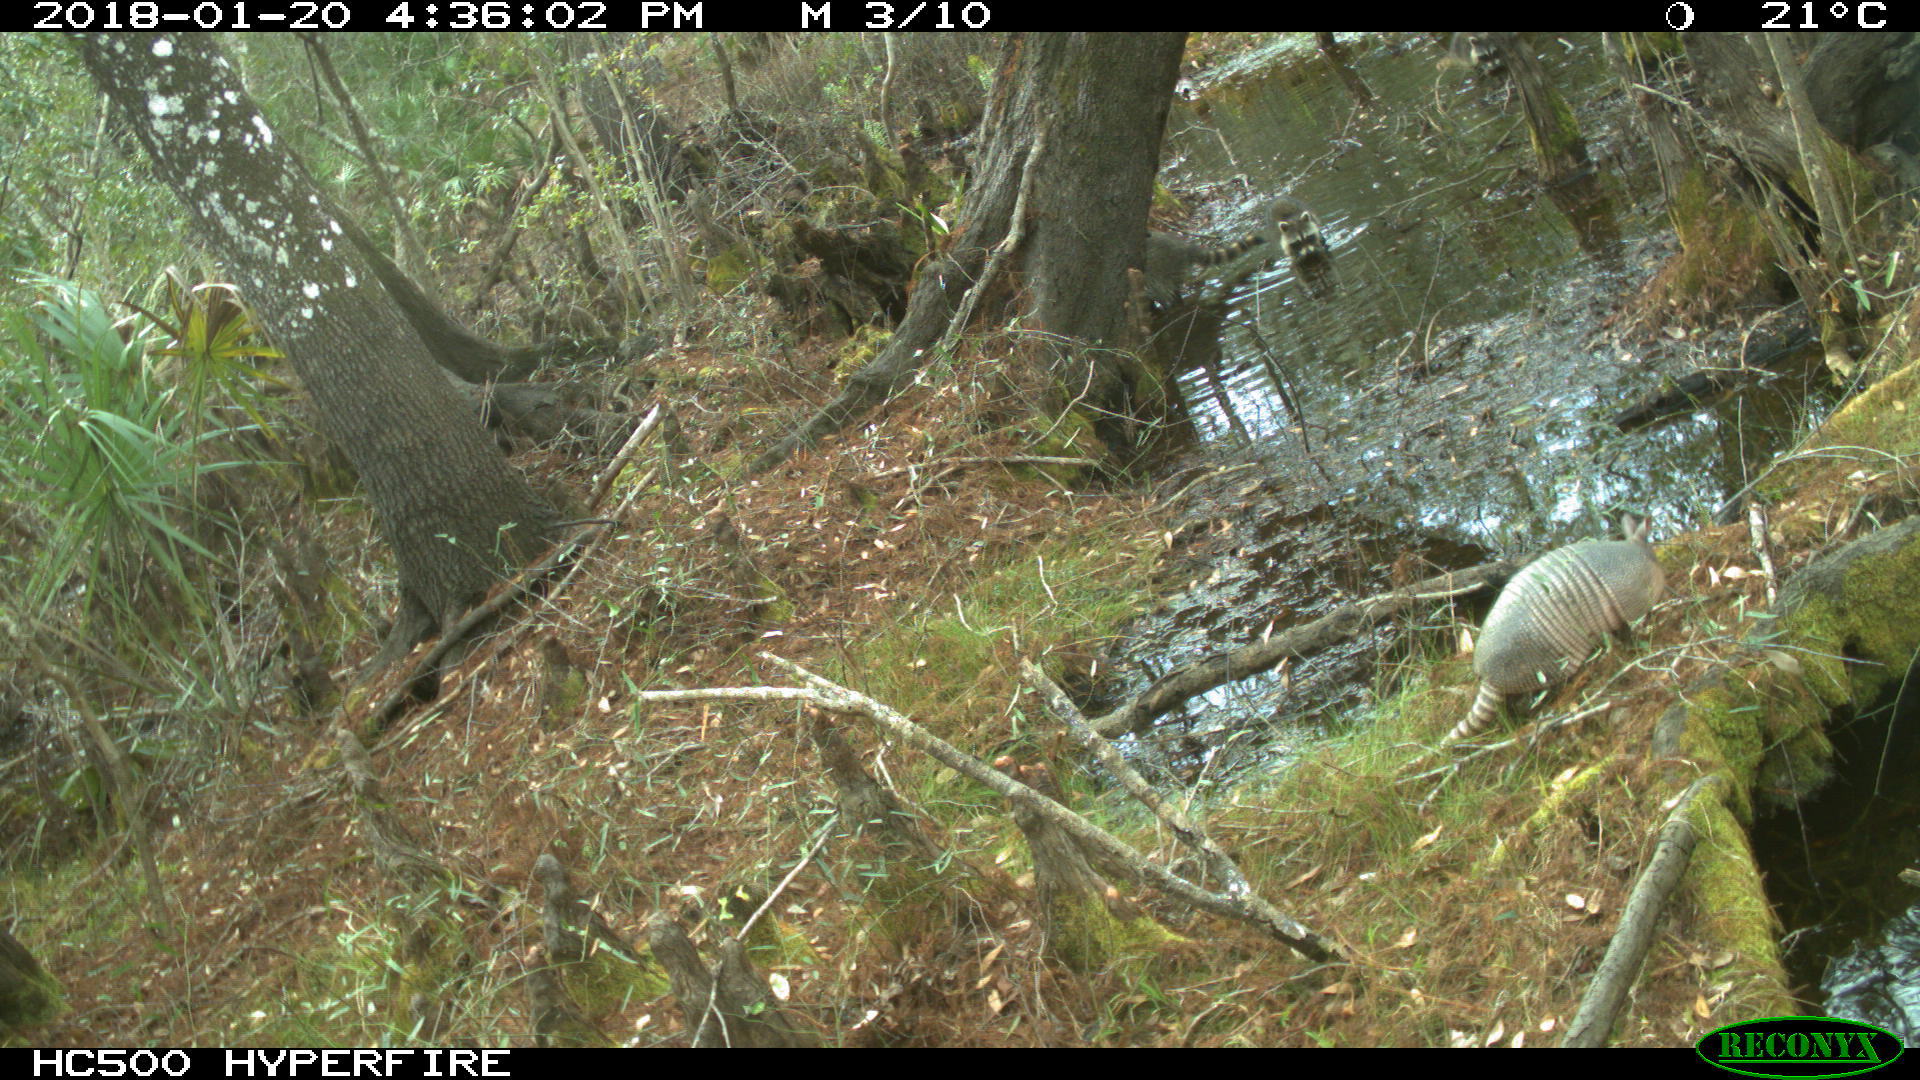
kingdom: Animalia
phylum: Chordata
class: Mammalia
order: Cingulata
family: Dasypodidae
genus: Dasypus
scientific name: Dasypus novemcinctus
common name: Nine-banded armadillo
